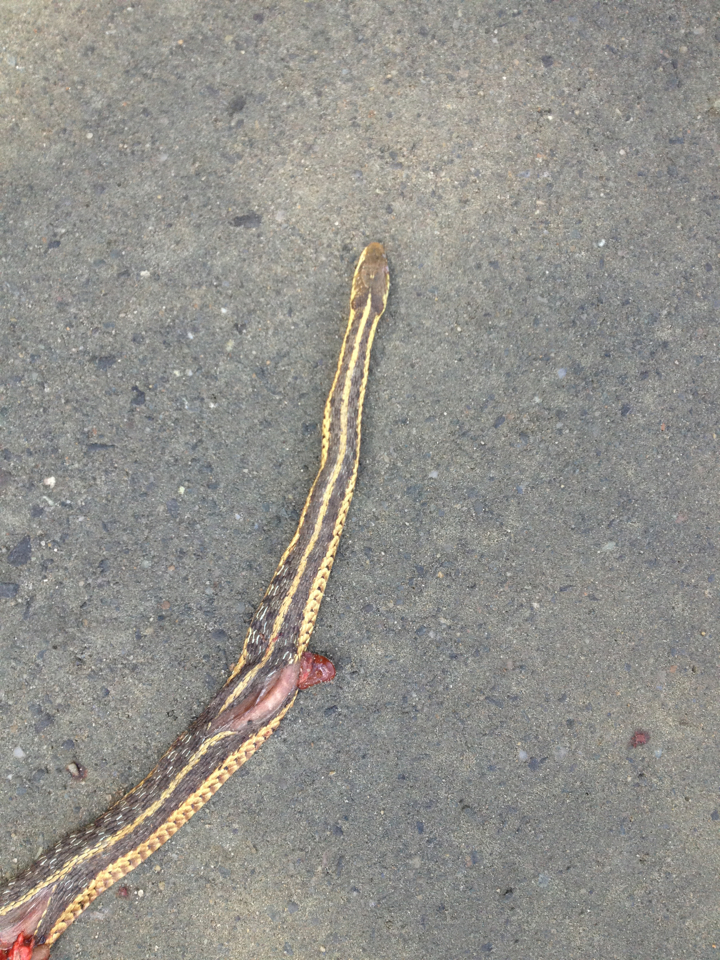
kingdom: Animalia
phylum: Chordata
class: Squamata
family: Colubridae
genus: Thamnophis
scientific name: Thamnophis sirtalis
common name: Common garter snake
